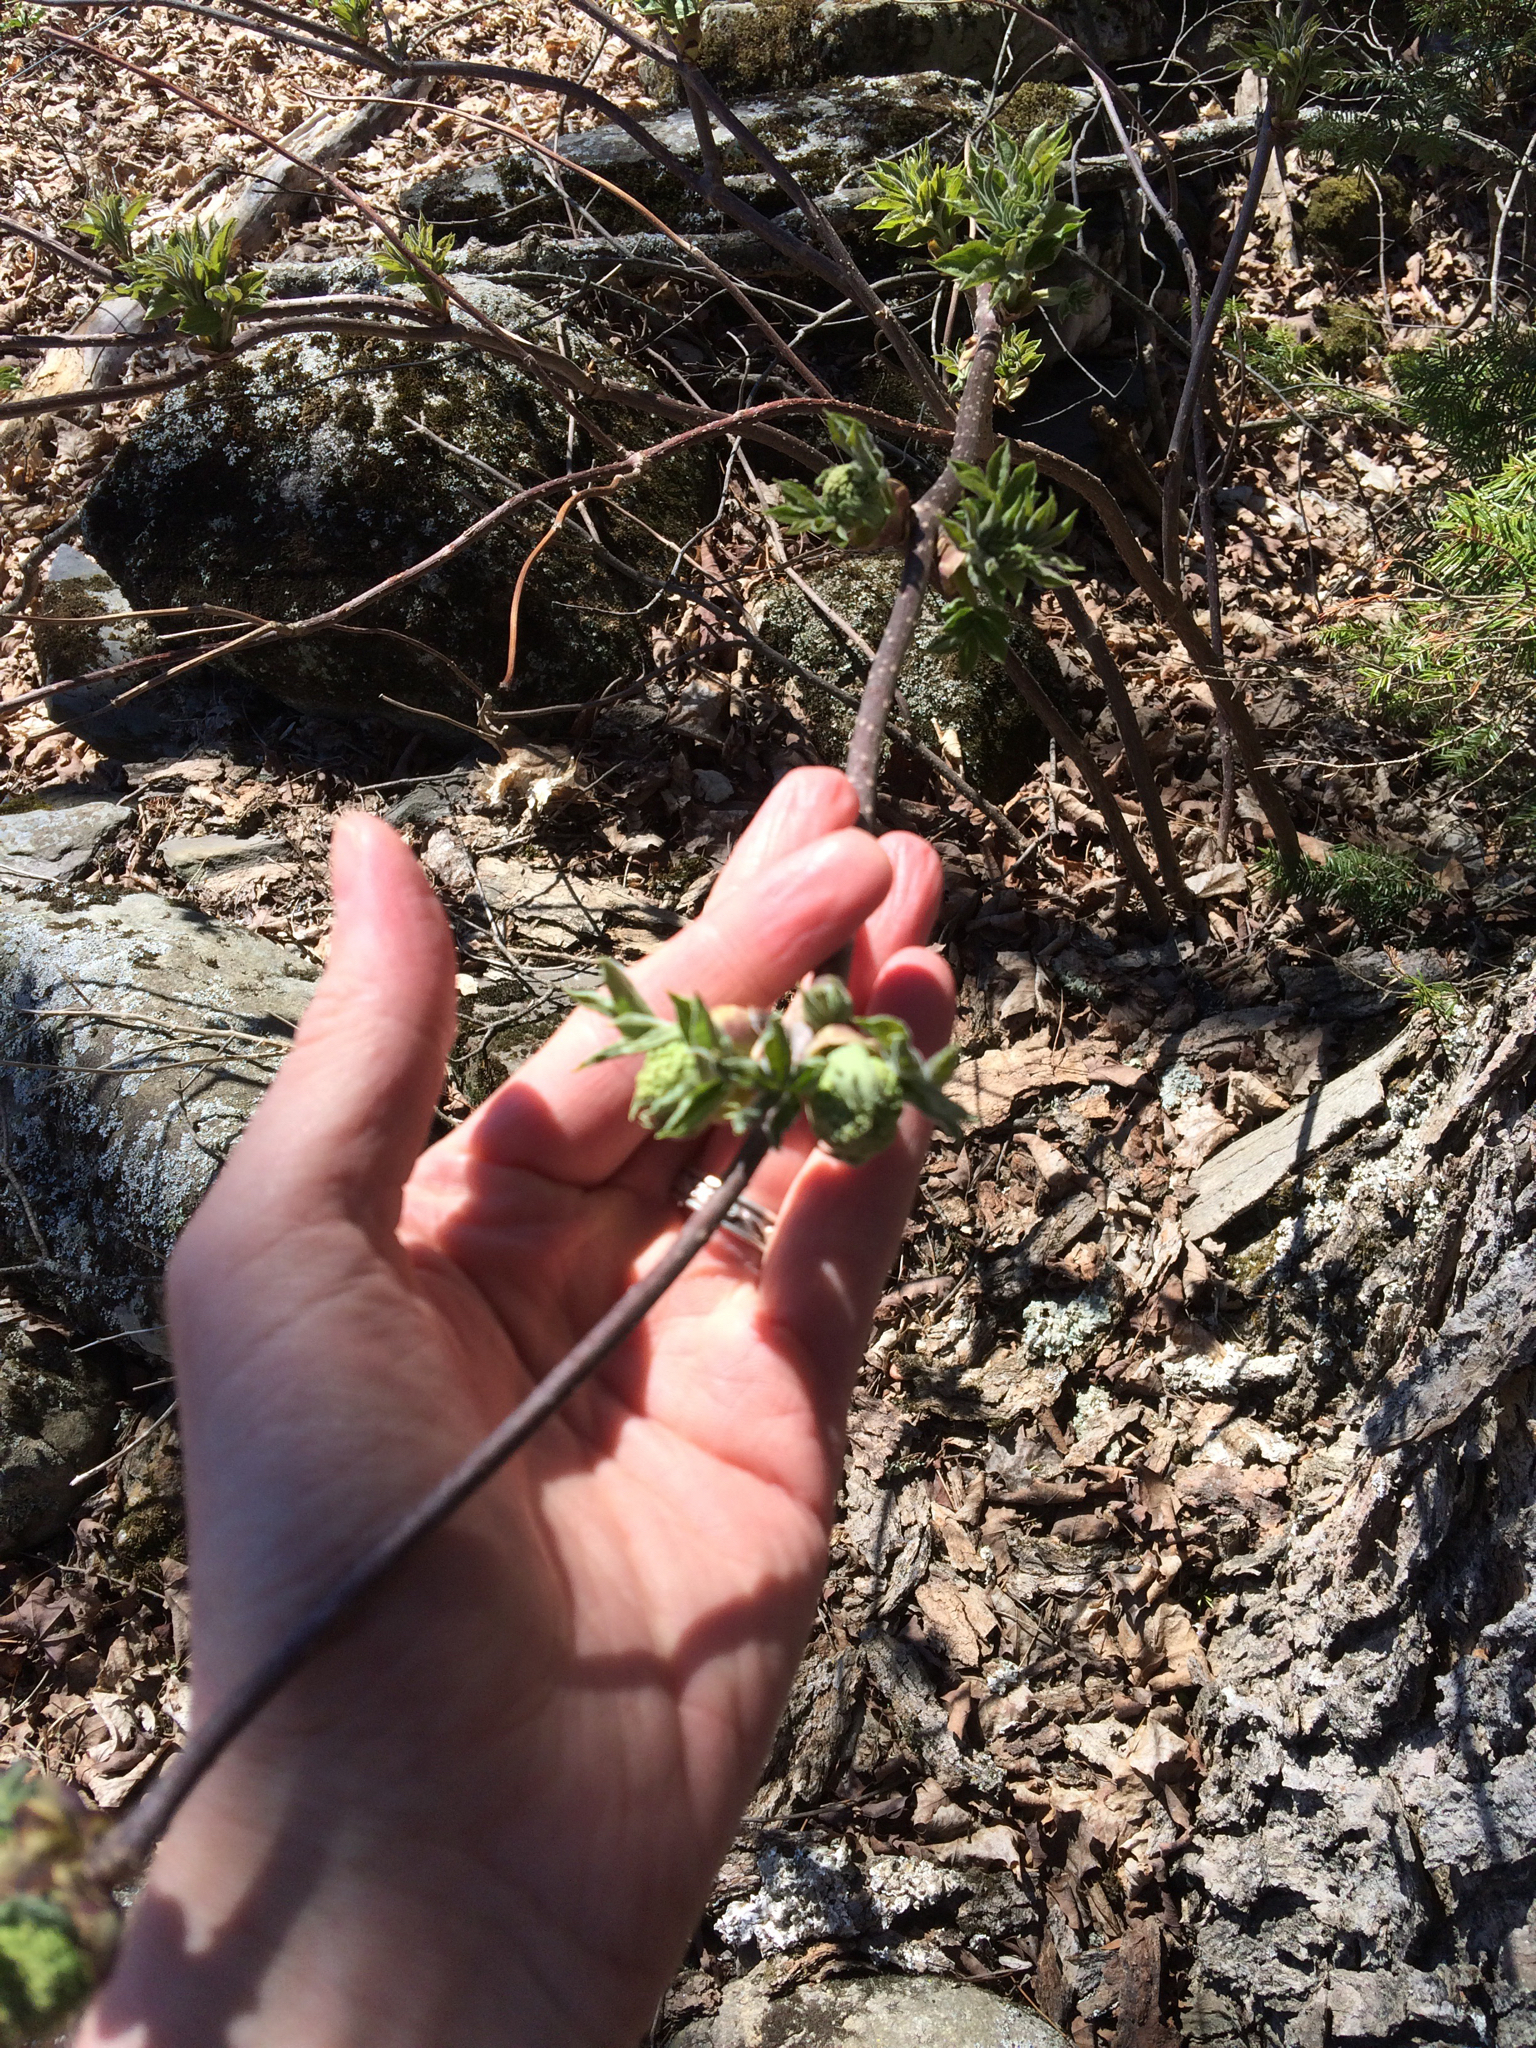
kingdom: Plantae
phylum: Tracheophyta
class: Magnoliopsida
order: Dipsacales
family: Viburnaceae
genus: Sambucus
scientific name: Sambucus racemosa
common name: Red-berried elder
